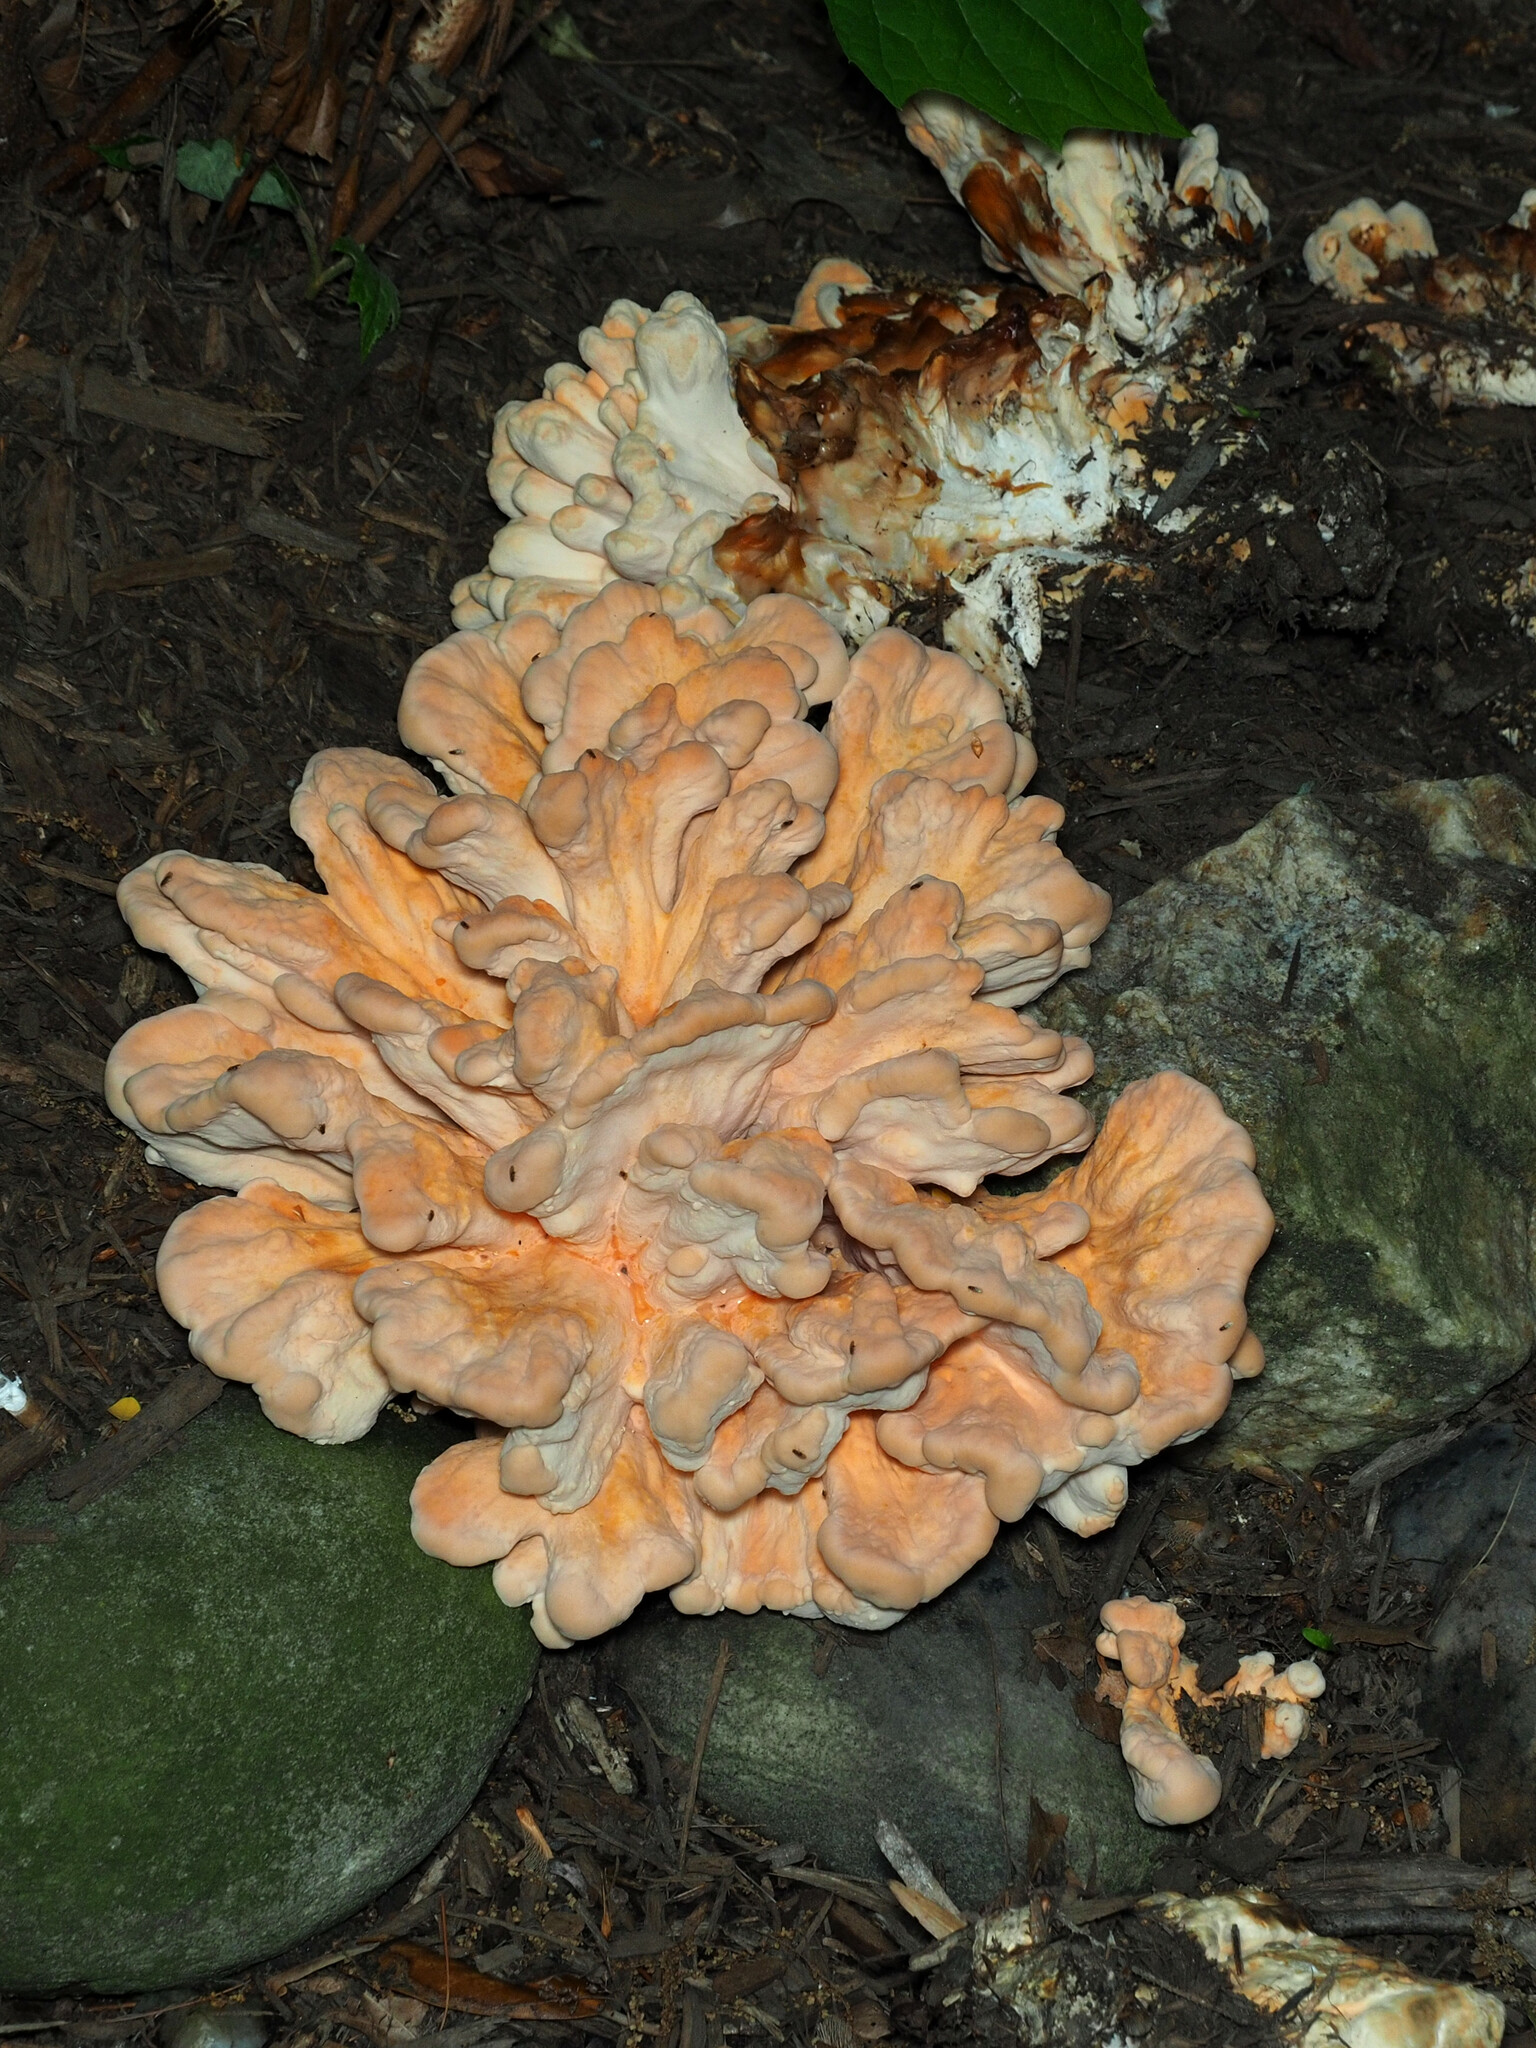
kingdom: Fungi
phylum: Basidiomycota
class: Agaricomycetes
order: Polyporales
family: Laetiporaceae
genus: Laetiporus
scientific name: Laetiporus sulphureus
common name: Chicken of the woods
